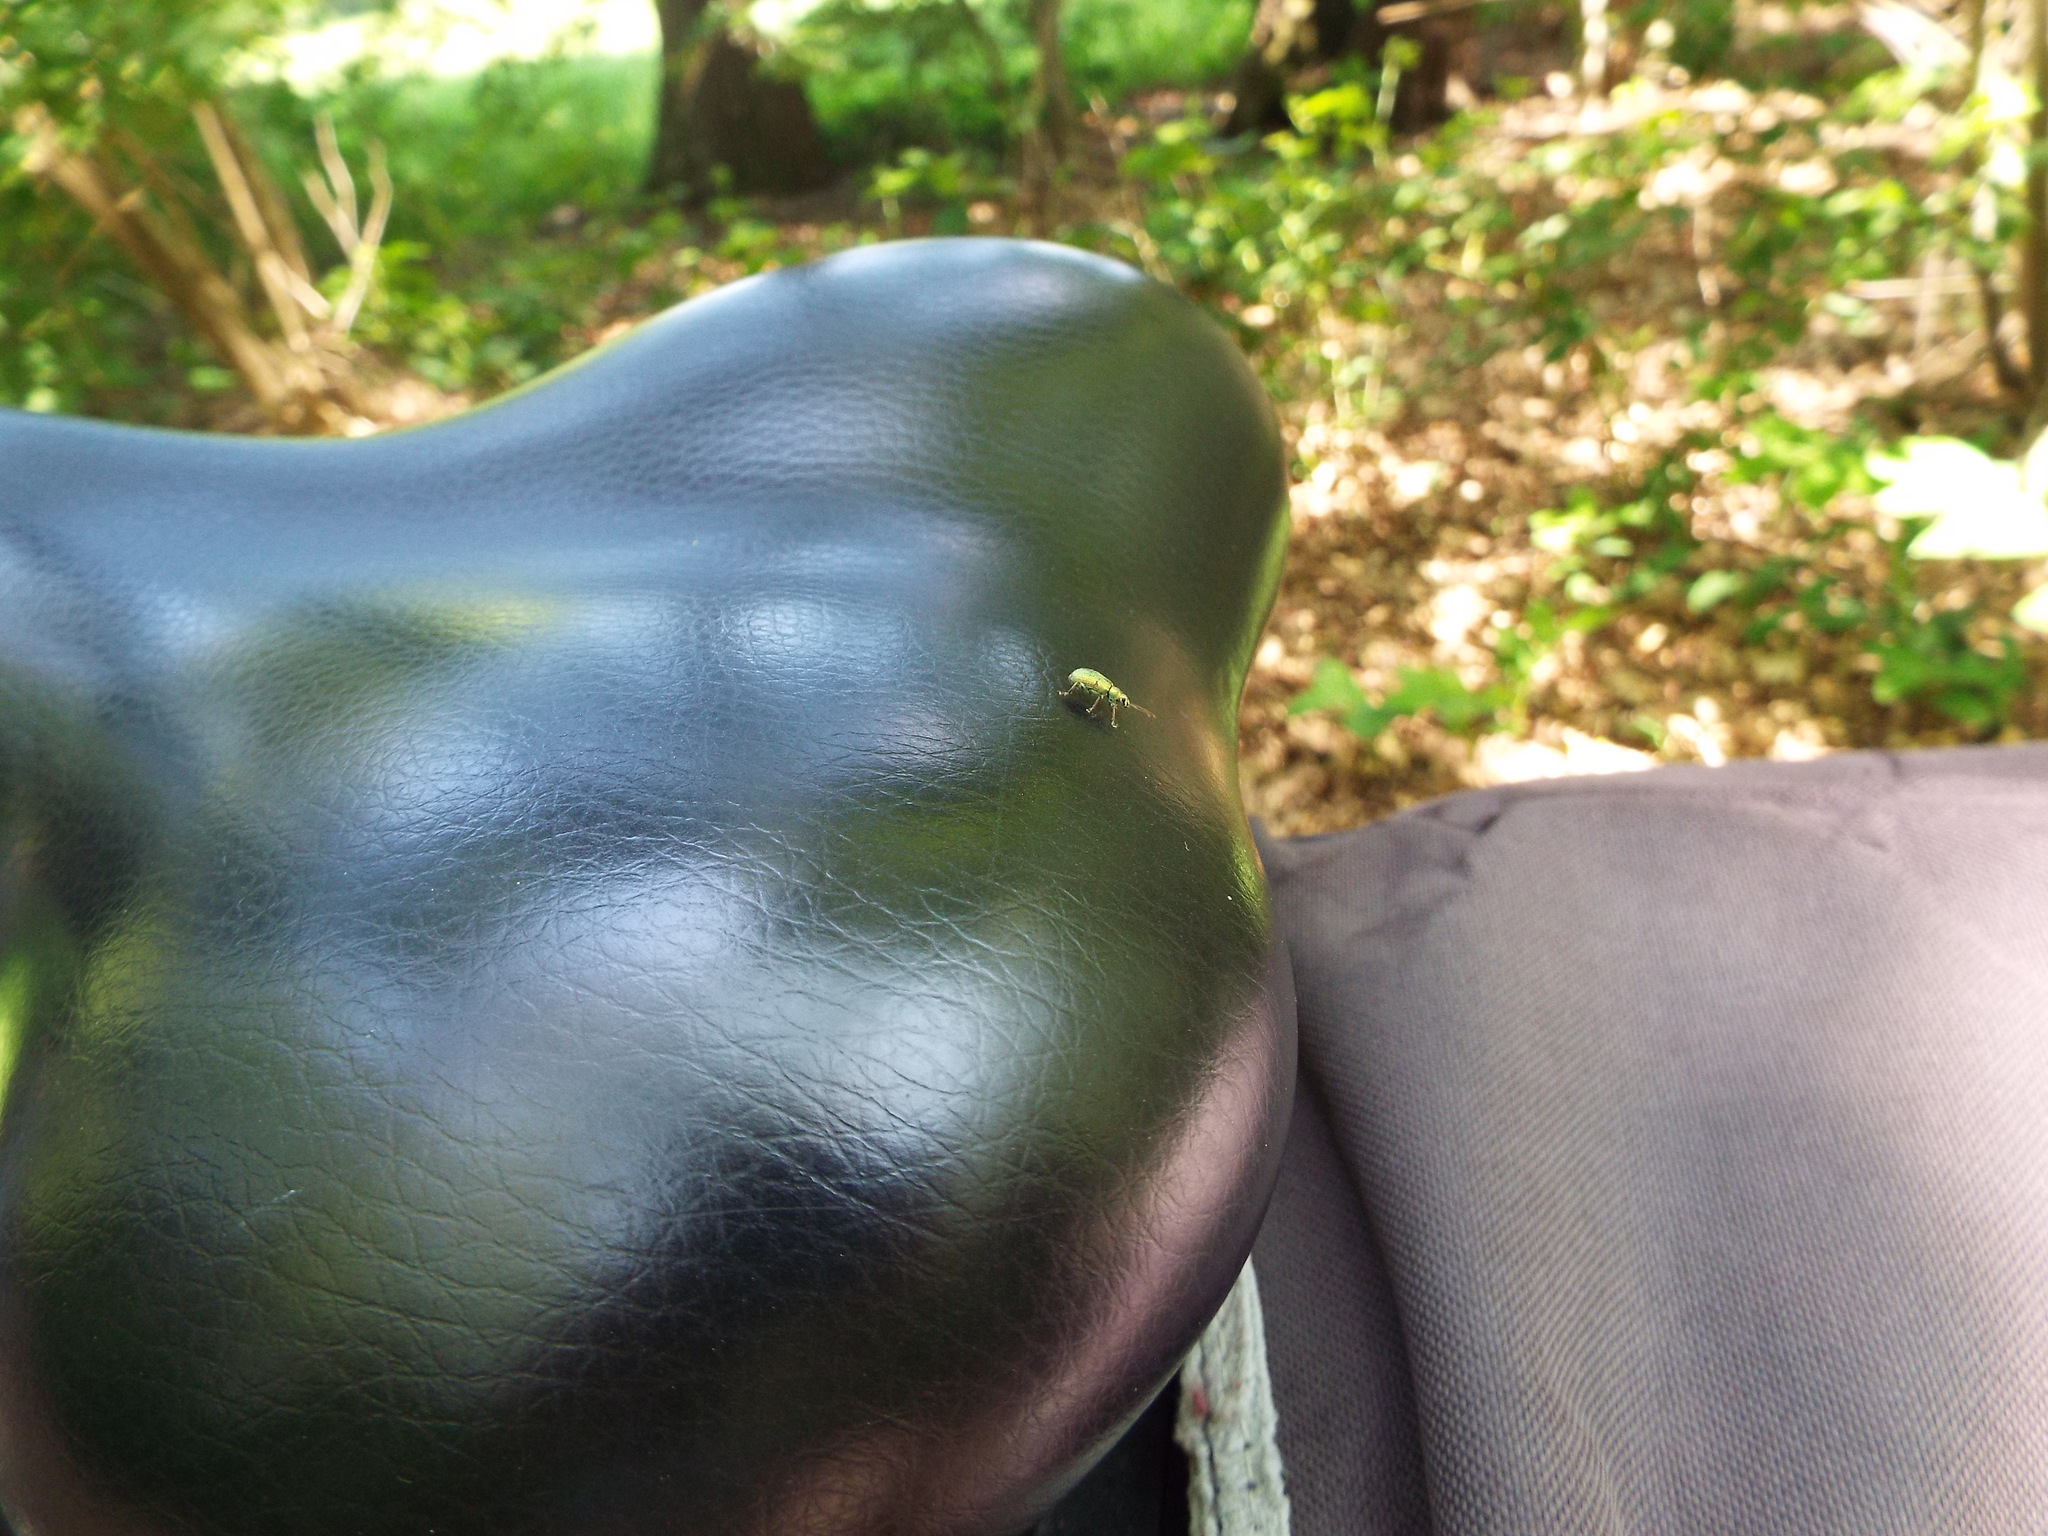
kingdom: Animalia
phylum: Arthropoda
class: Insecta
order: Coleoptera
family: Curculionidae
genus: Polydrusus
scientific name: Polydrusus formosus
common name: Weevil
